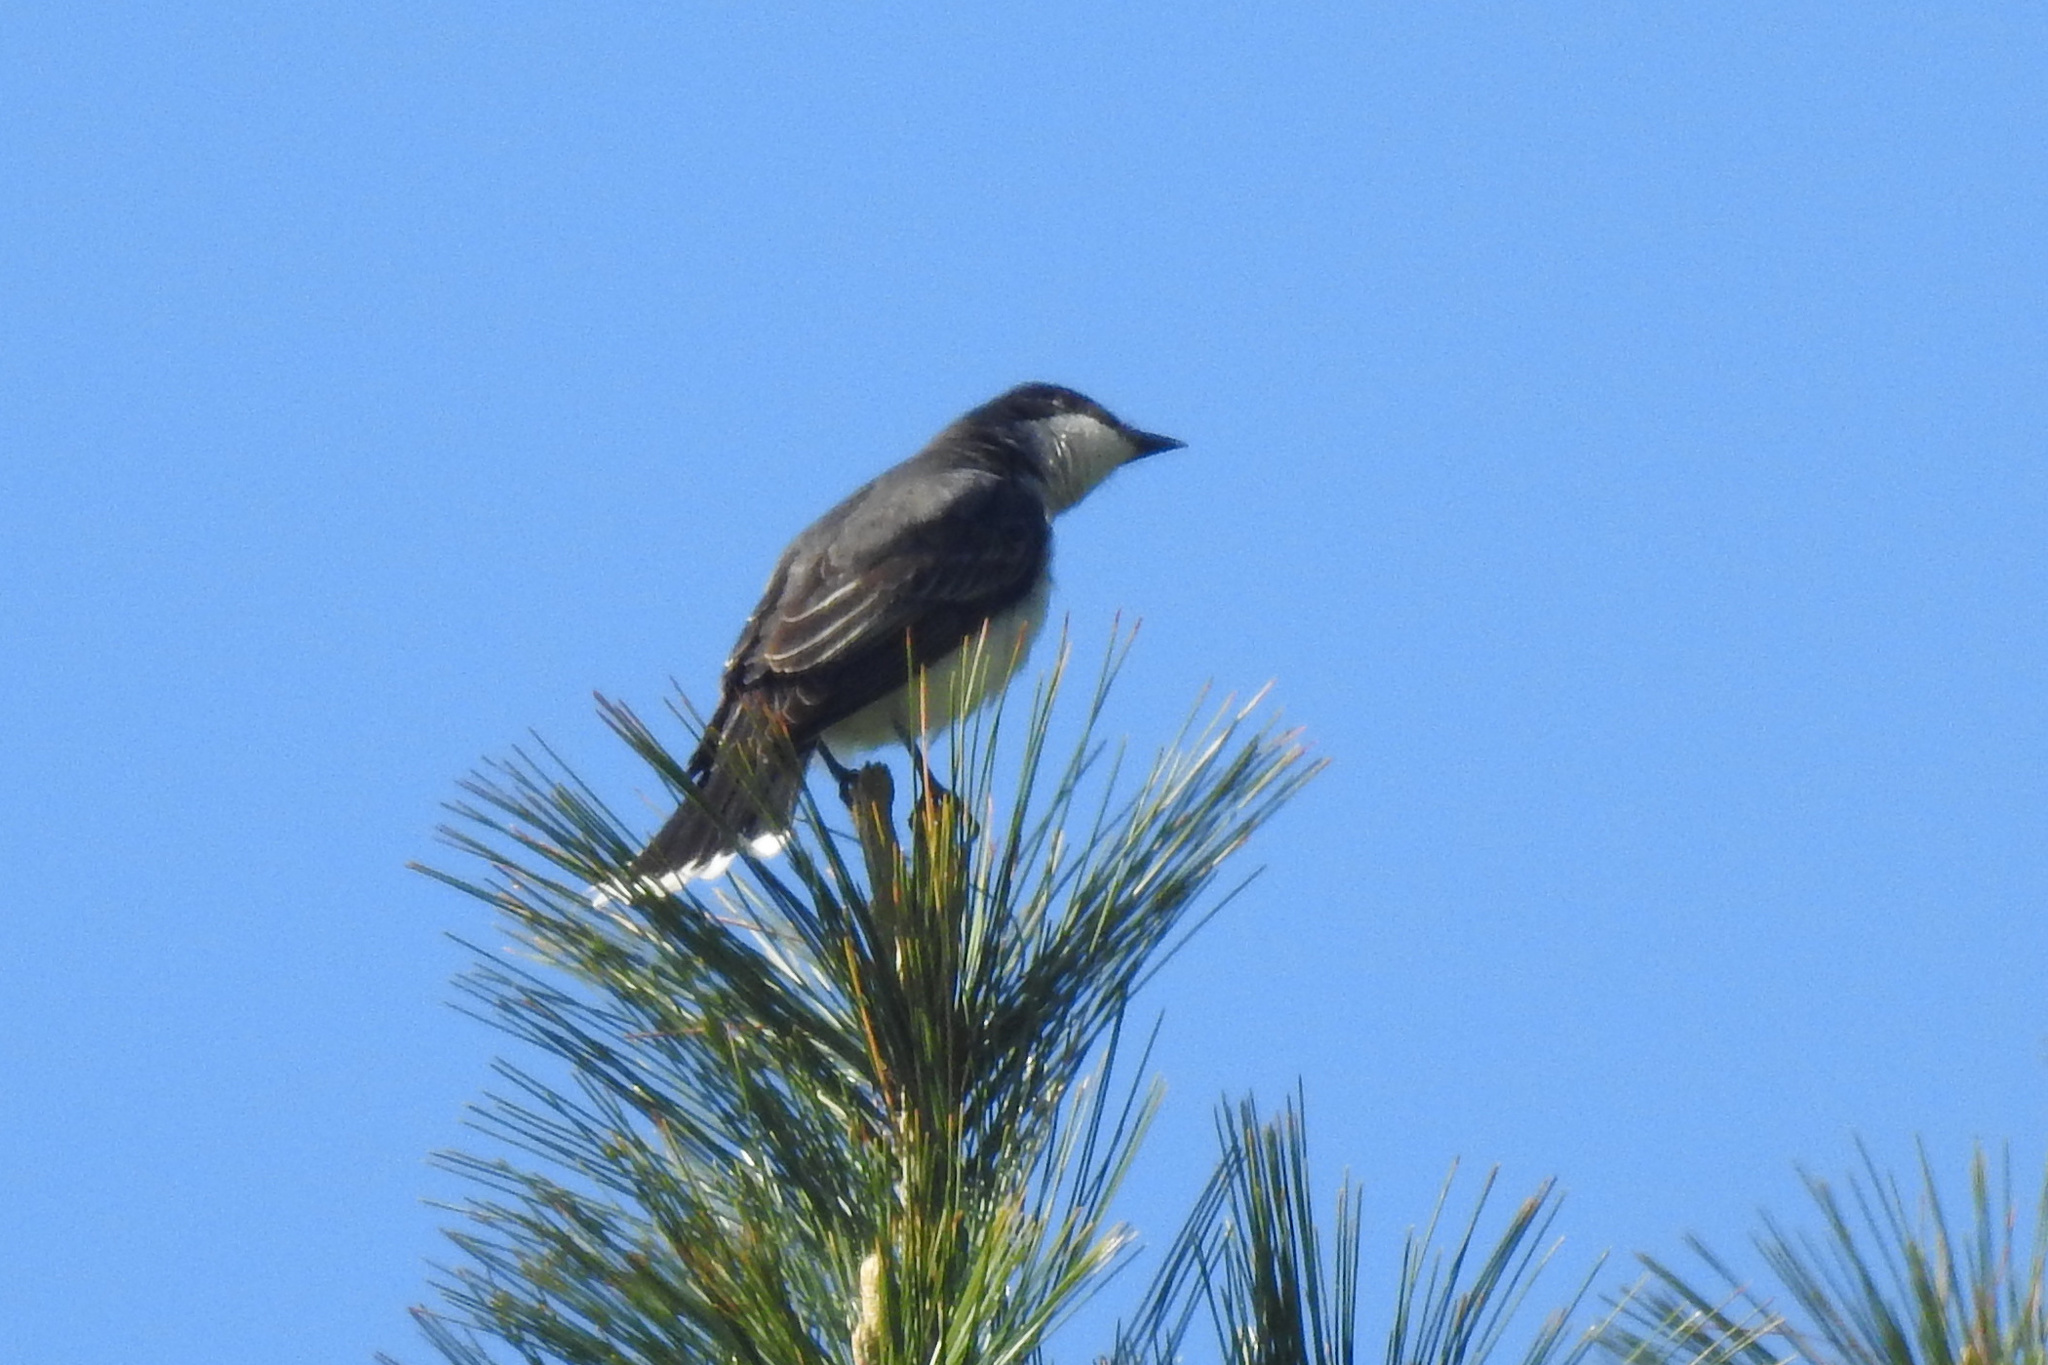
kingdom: Animalia
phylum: Chordata
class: Aves
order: Passeriformes
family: Tyrannidae
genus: Tyrannus
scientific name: Tyrannus tyrannus
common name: Eastern kingbird
